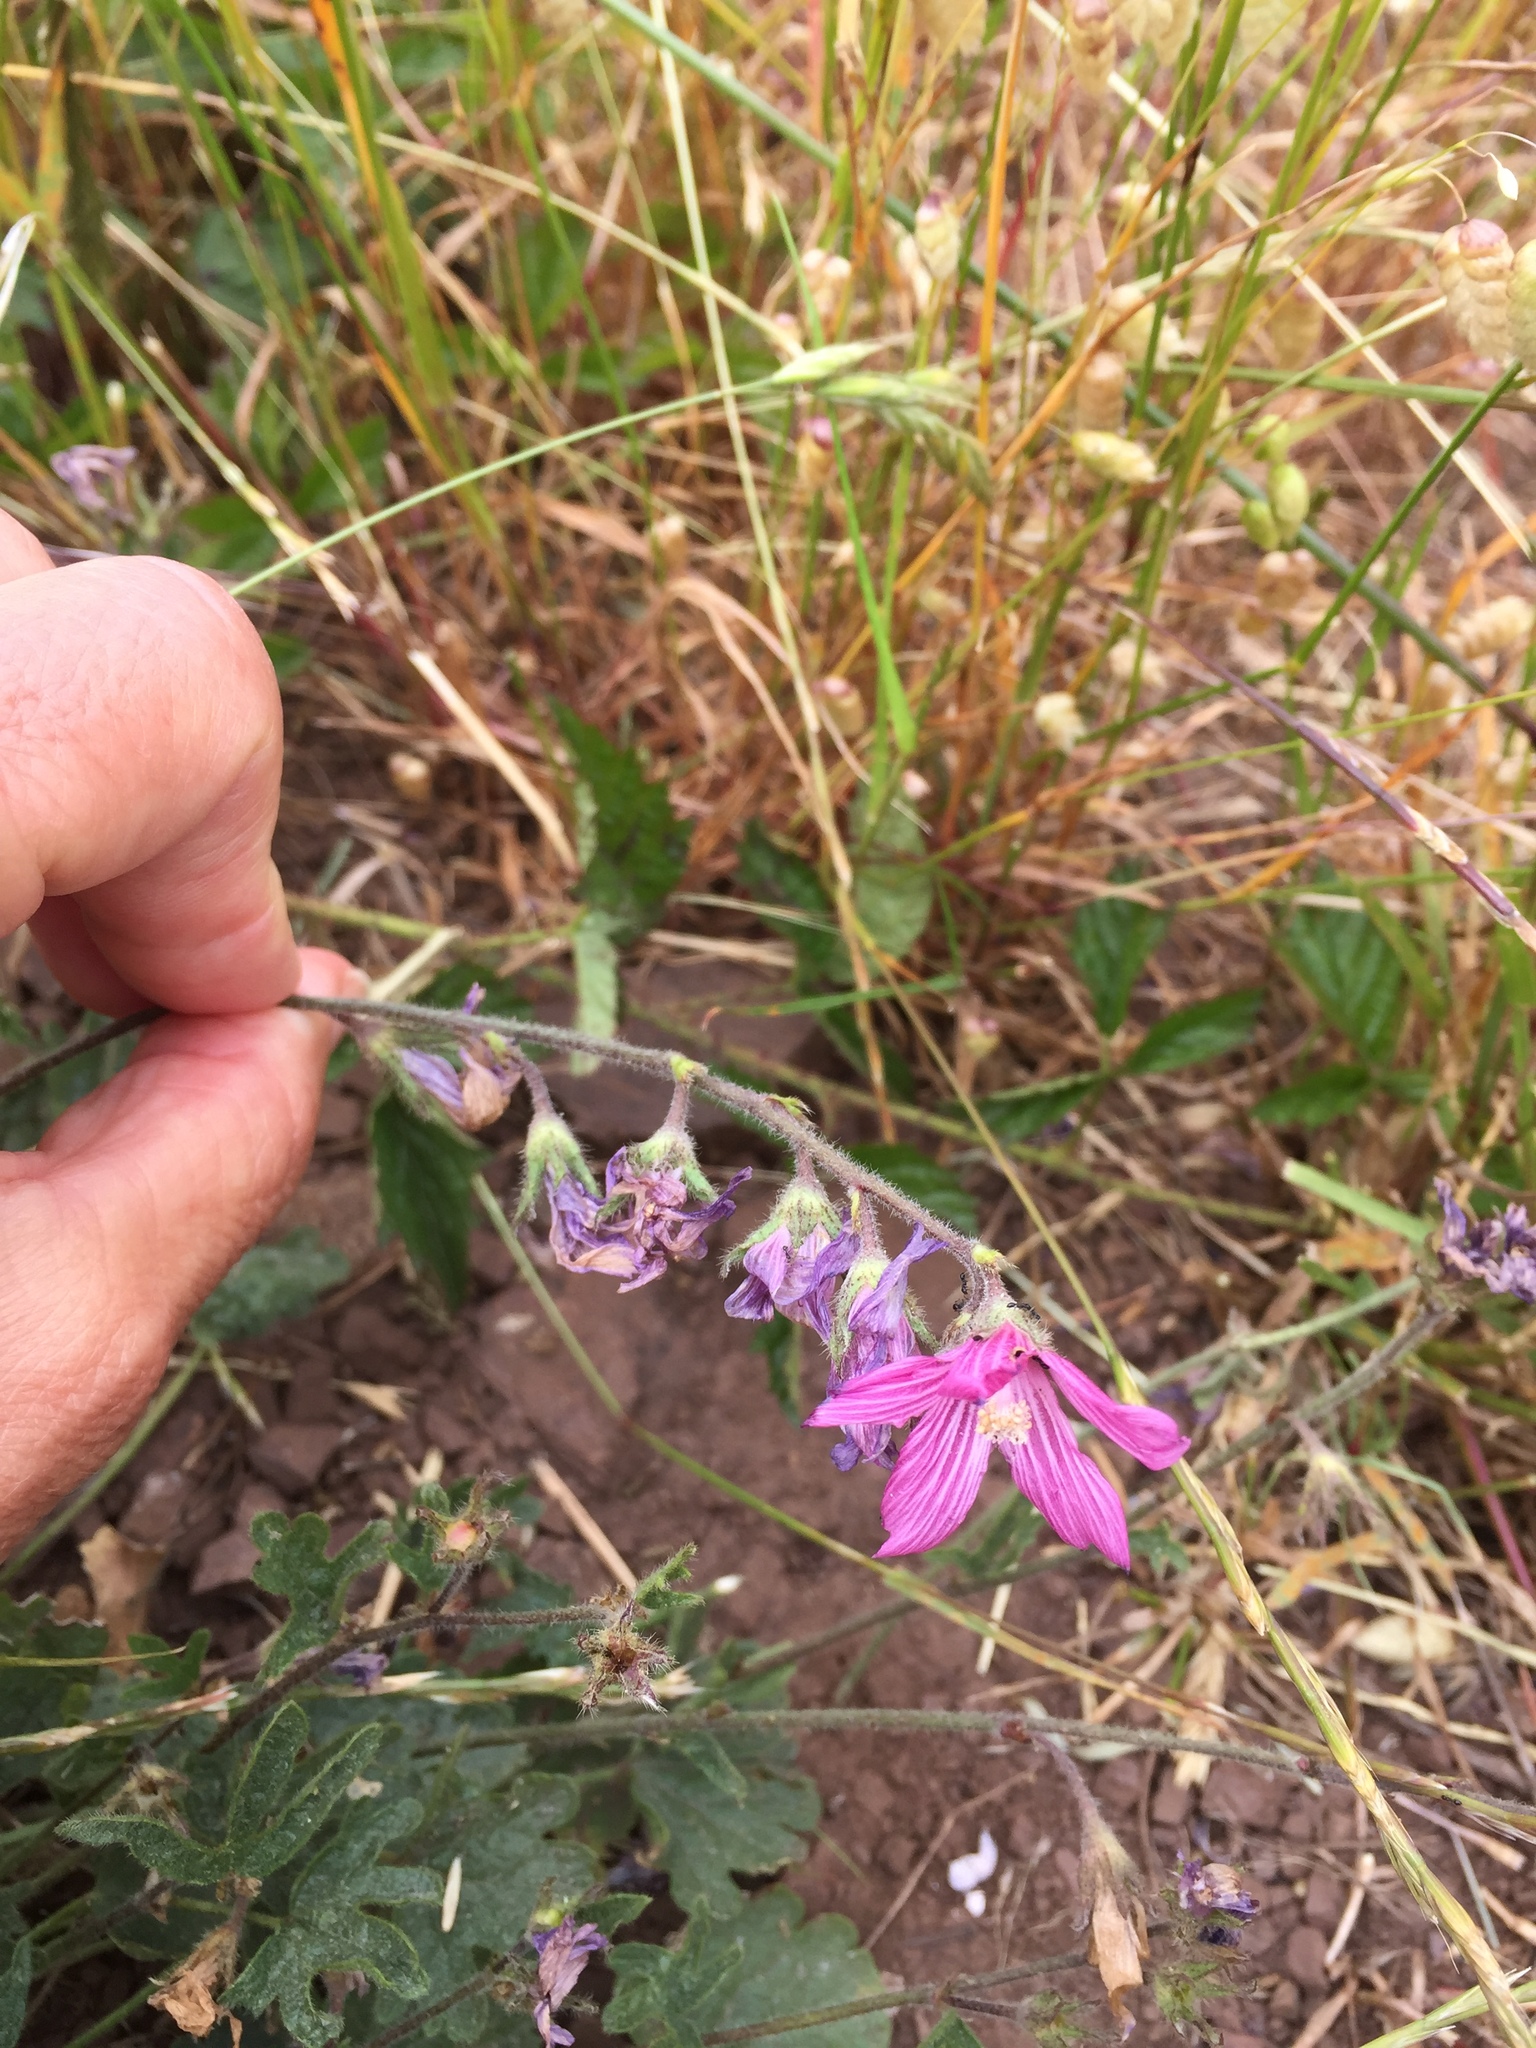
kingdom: Plantae
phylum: Tracheophyta
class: Magnoliopsida
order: Malvales
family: Malvaceae
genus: Sidalcea
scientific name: Sidalcea malviflora
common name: Greek mallow
